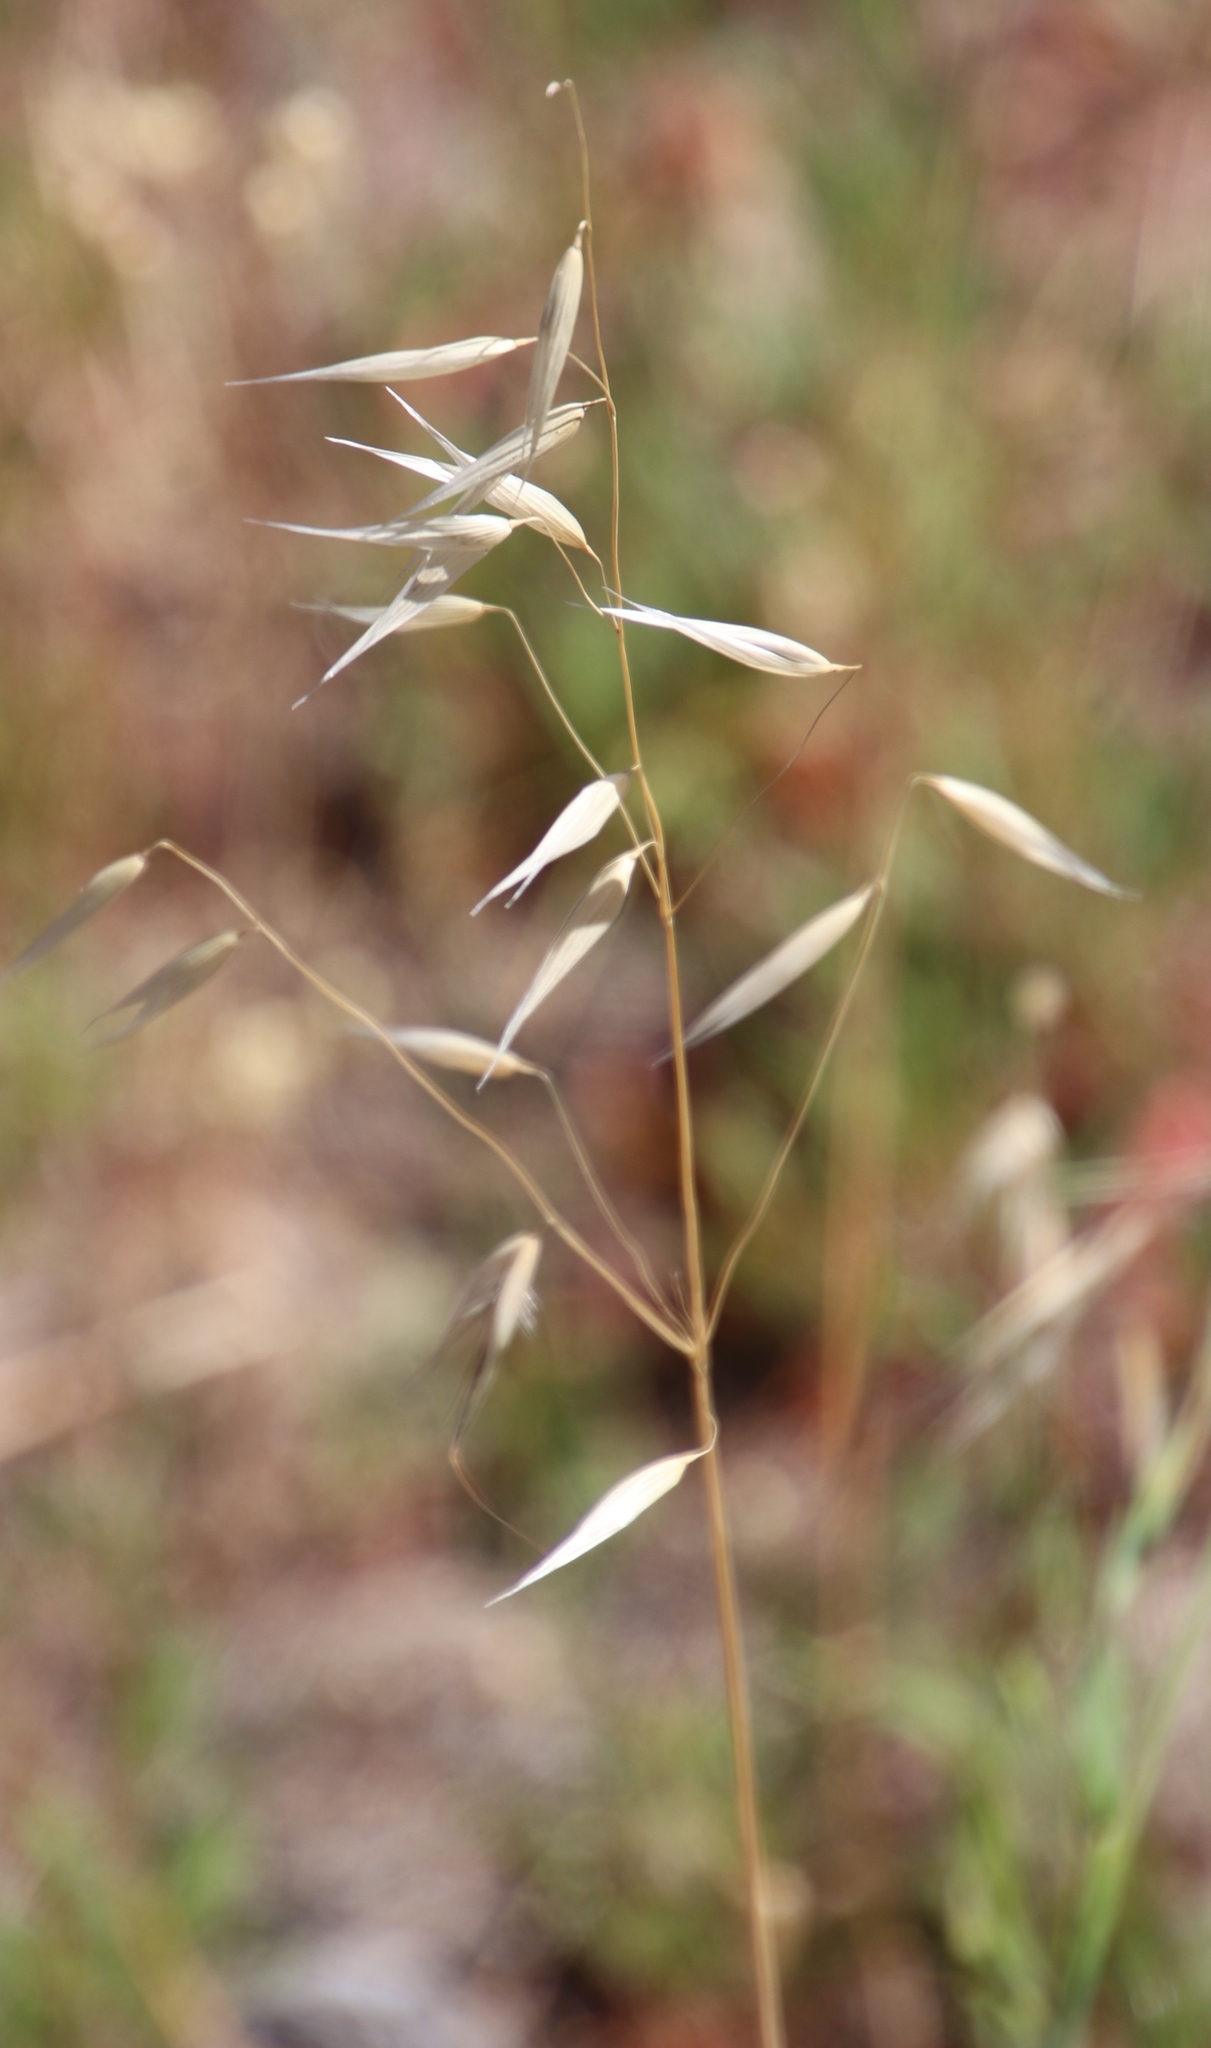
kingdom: Plantae
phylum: Tracheophyta
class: Liliopsida
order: Poales
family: Poaceae
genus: Avena
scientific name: Avena fatua
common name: Wild oat
